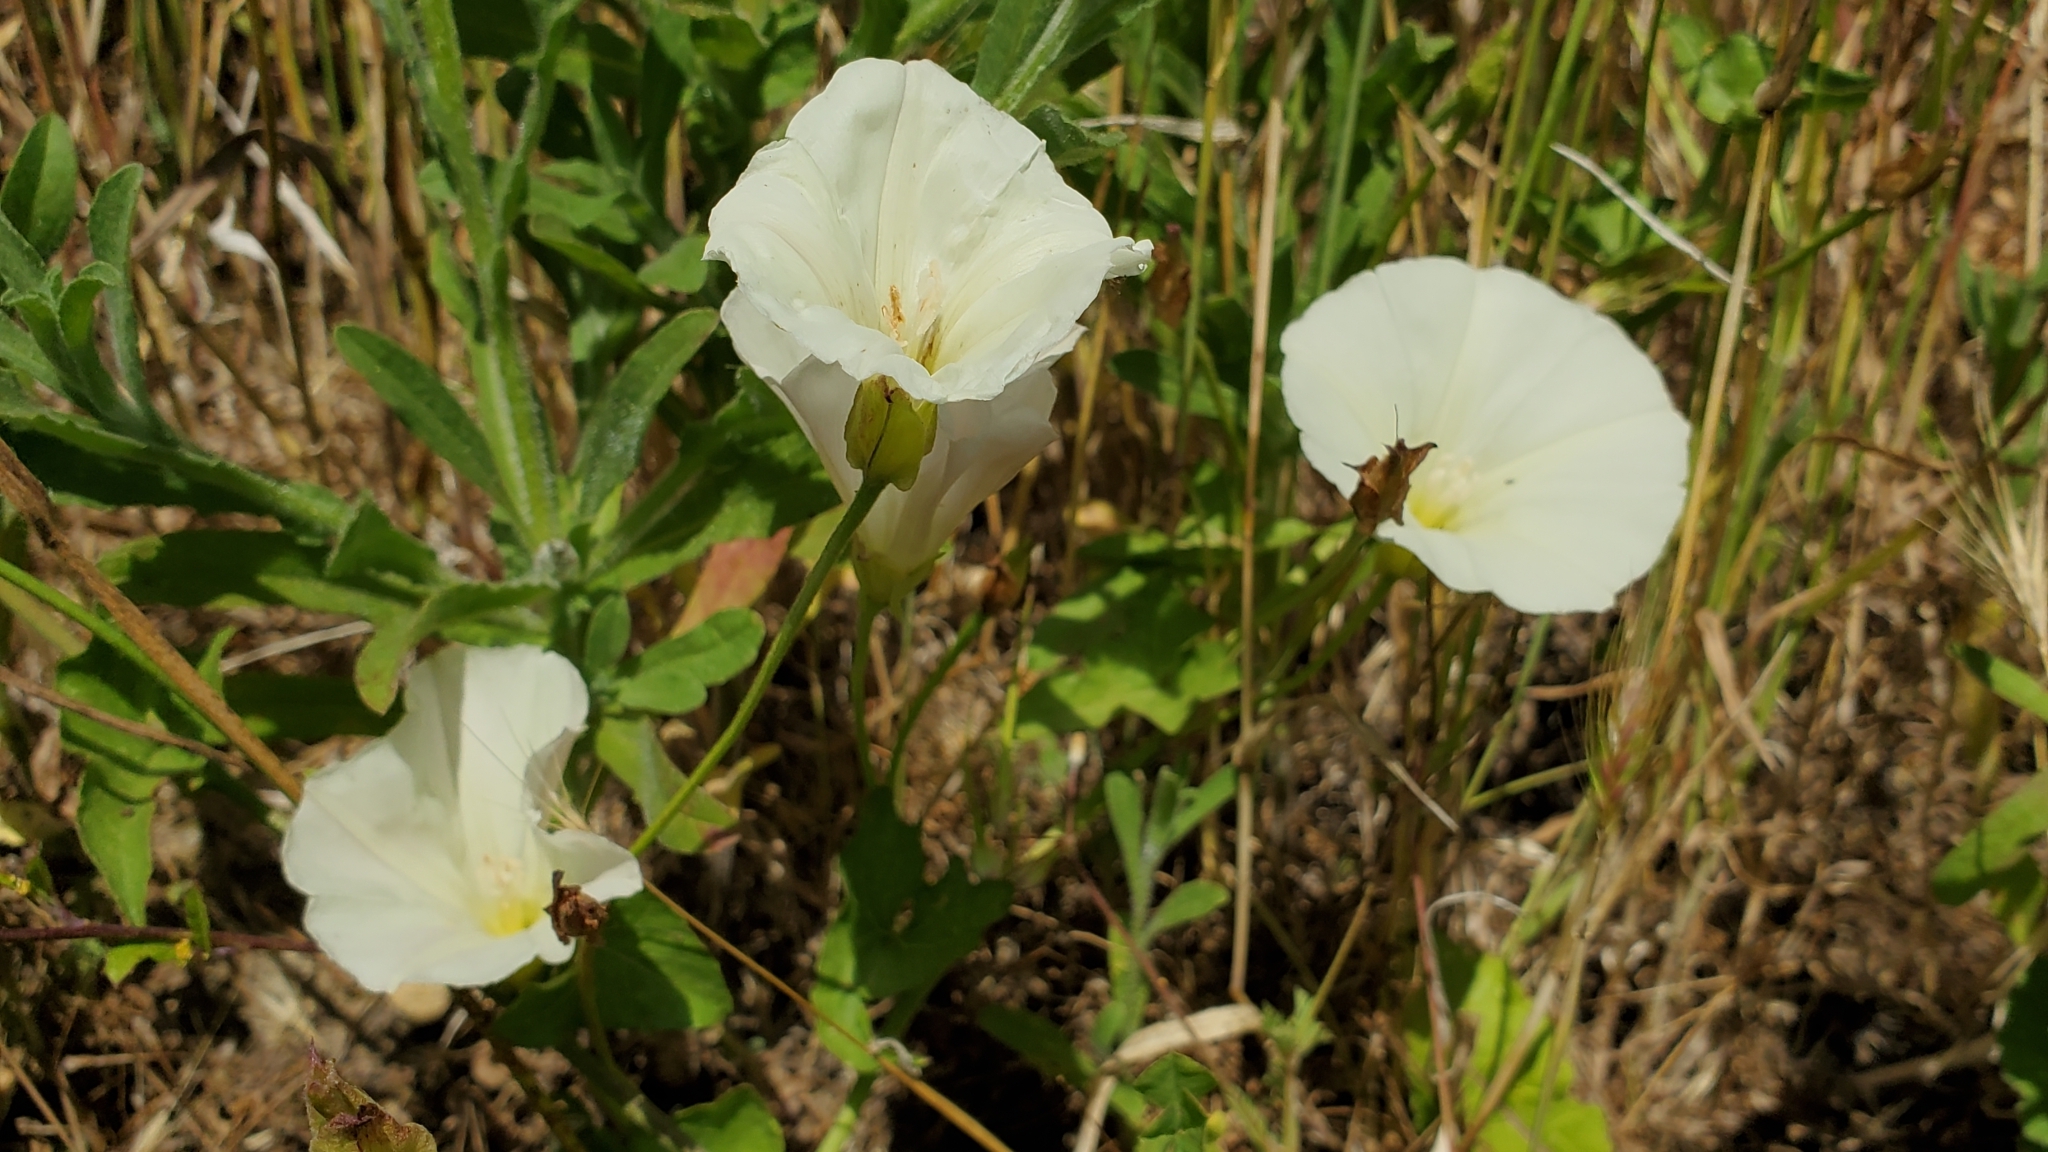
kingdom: Plantae
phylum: Tracheophyta
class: Magnoliopsida
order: Solanales
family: Convolvulaceae
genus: Calystegia
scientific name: Calystegia macrostegia
